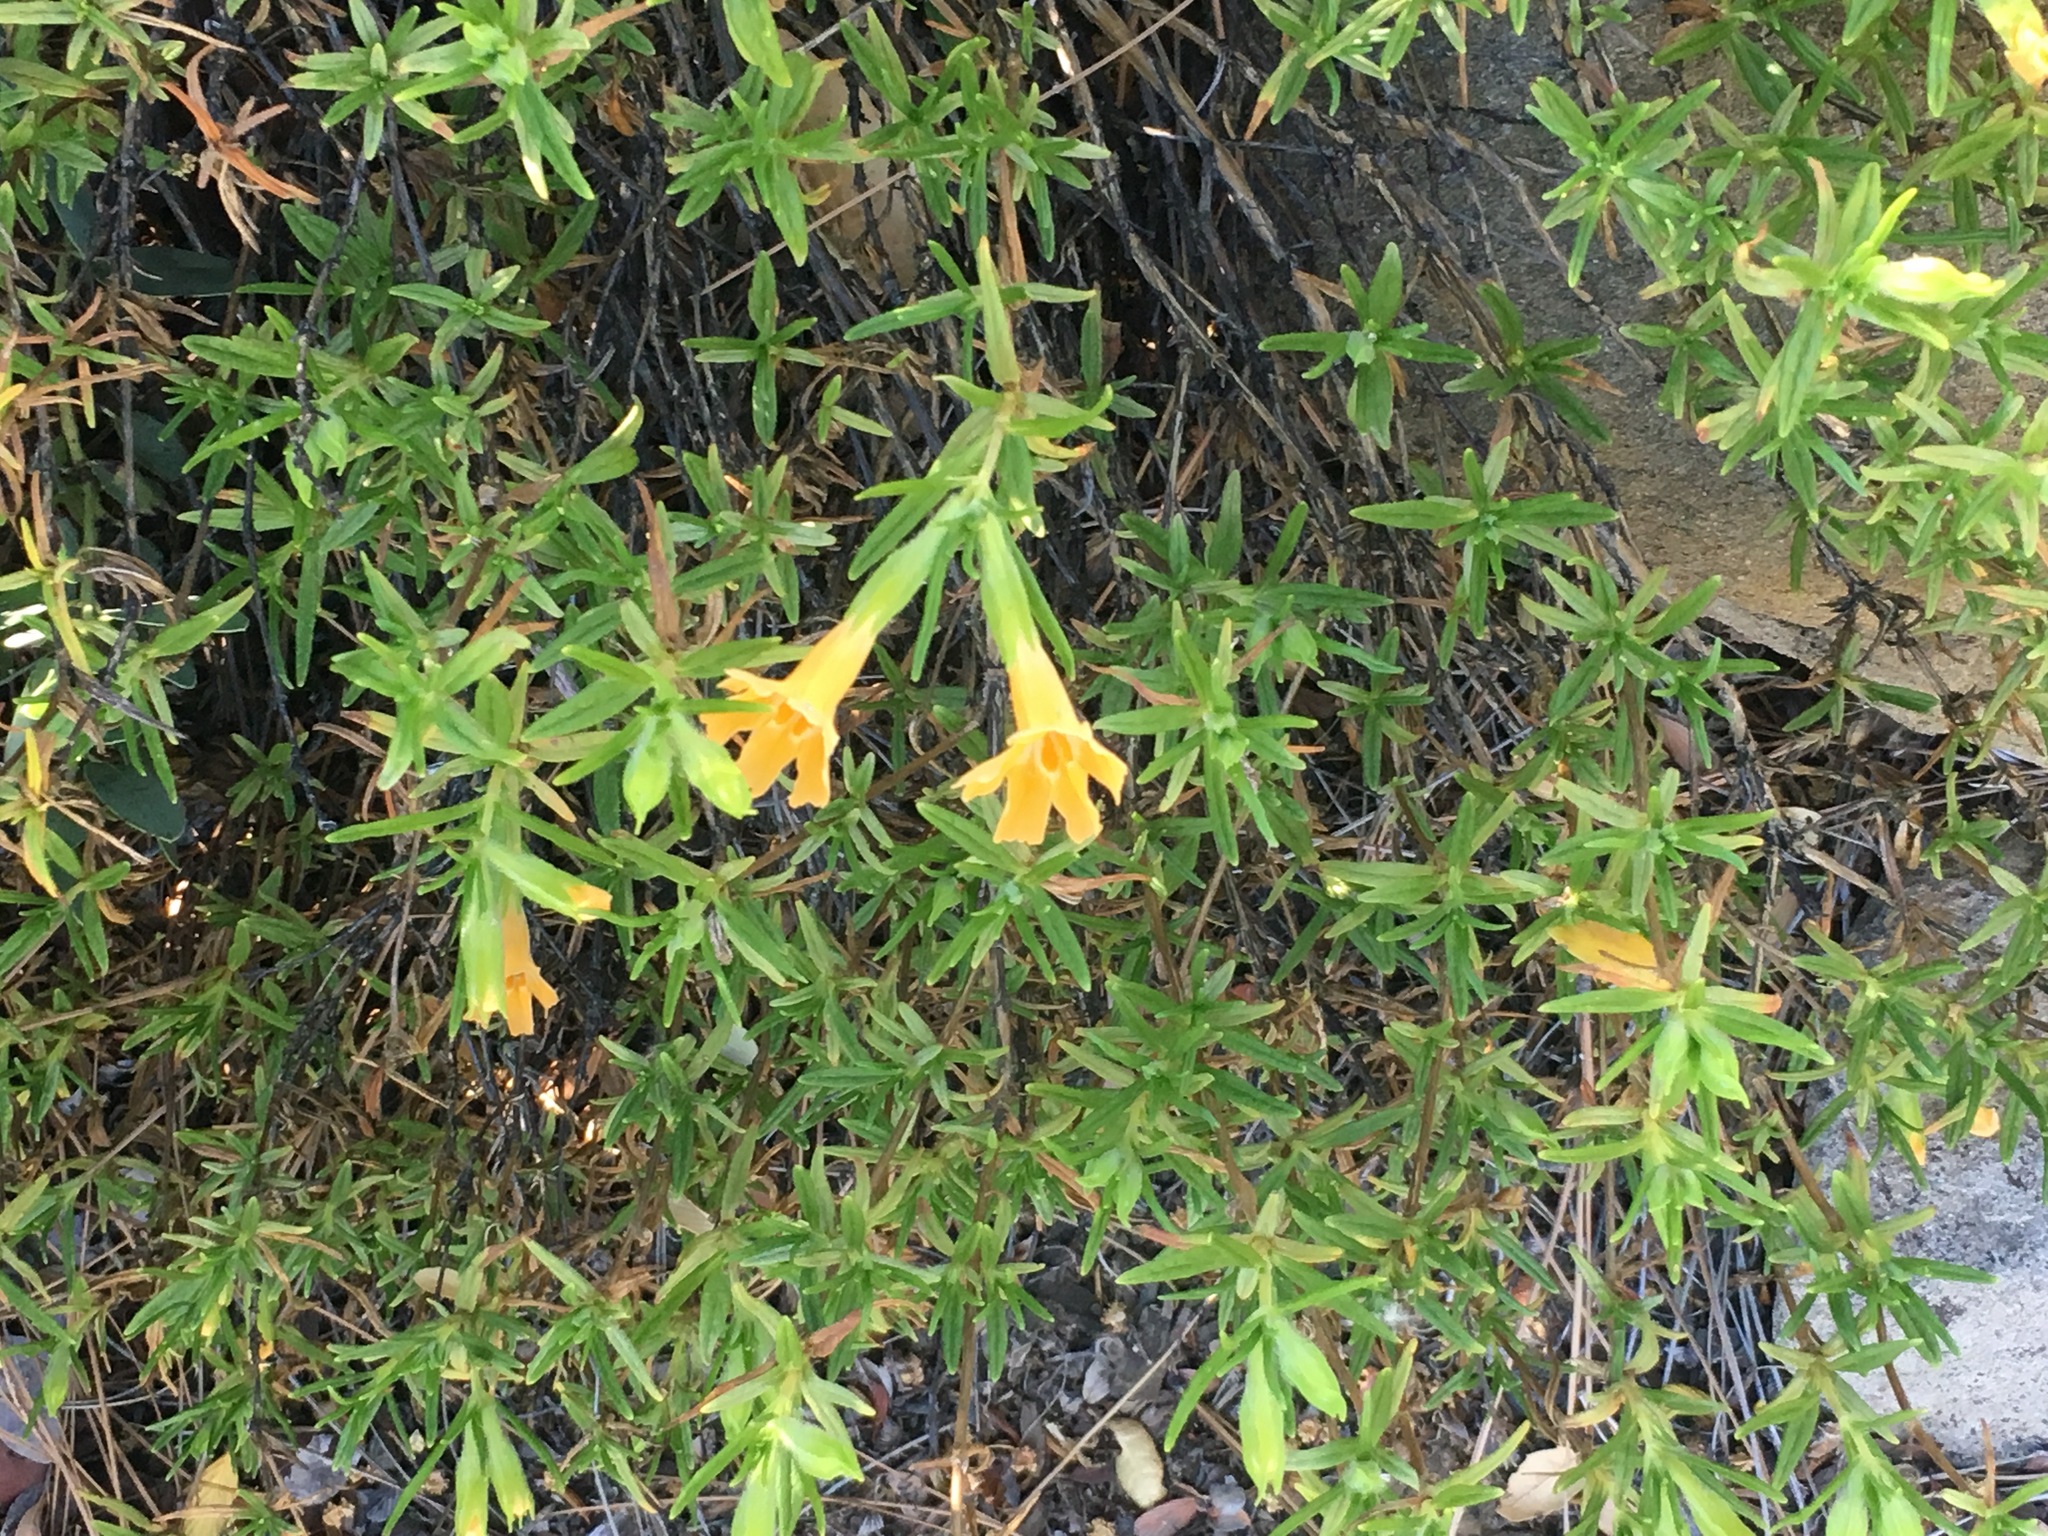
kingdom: Plantae
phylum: Tracheophyta
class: Magnoliopsida
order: Lamiales
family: Phrymaceae
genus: Diplacus
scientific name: Diplacus longiflorus
